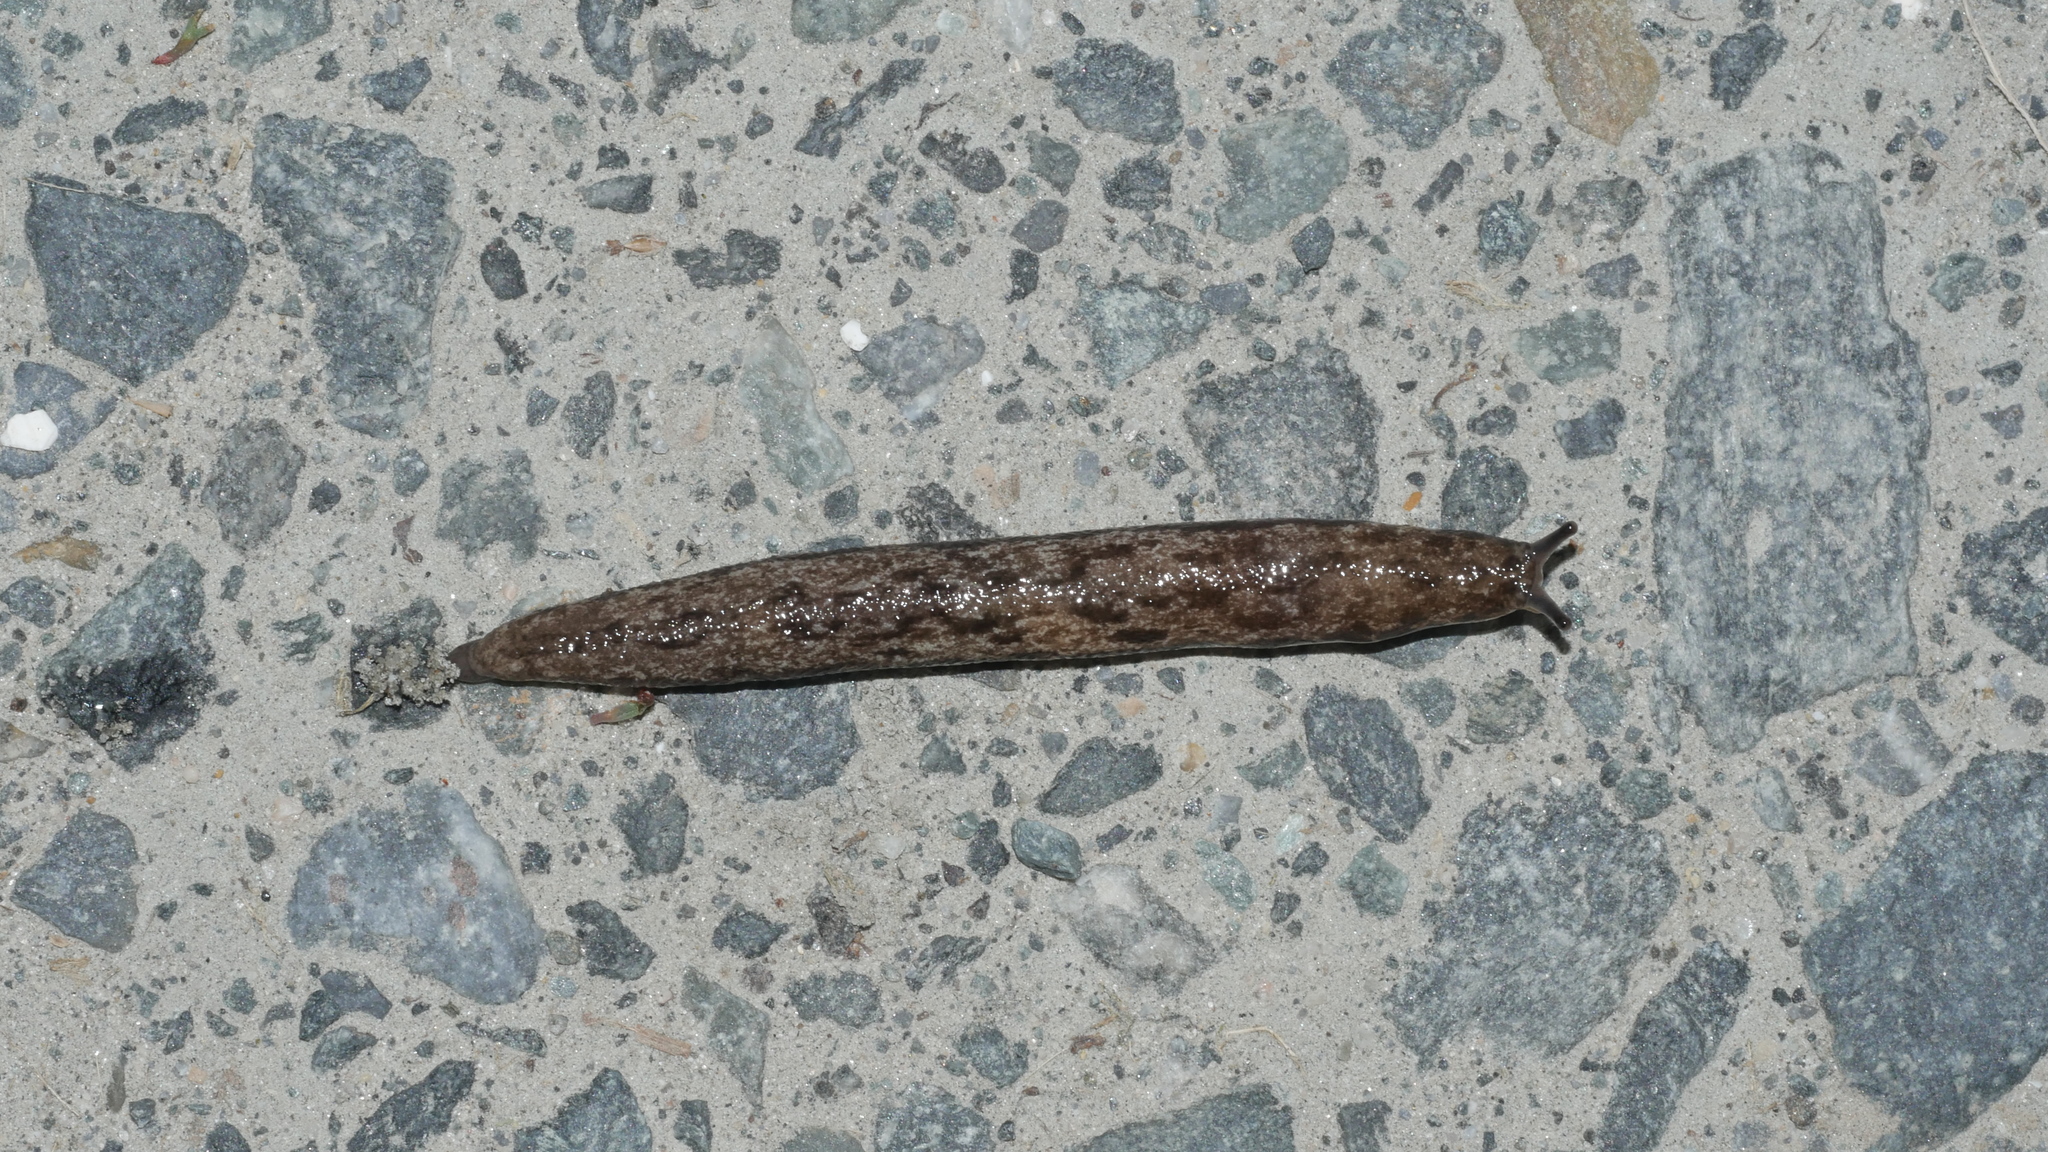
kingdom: Animalia
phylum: Mollusca
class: Gastropoda
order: Stylommatophora
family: Philomycidae
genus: Megapallifera
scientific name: Megapallifera mutabilis
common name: Changeable mantleslug
